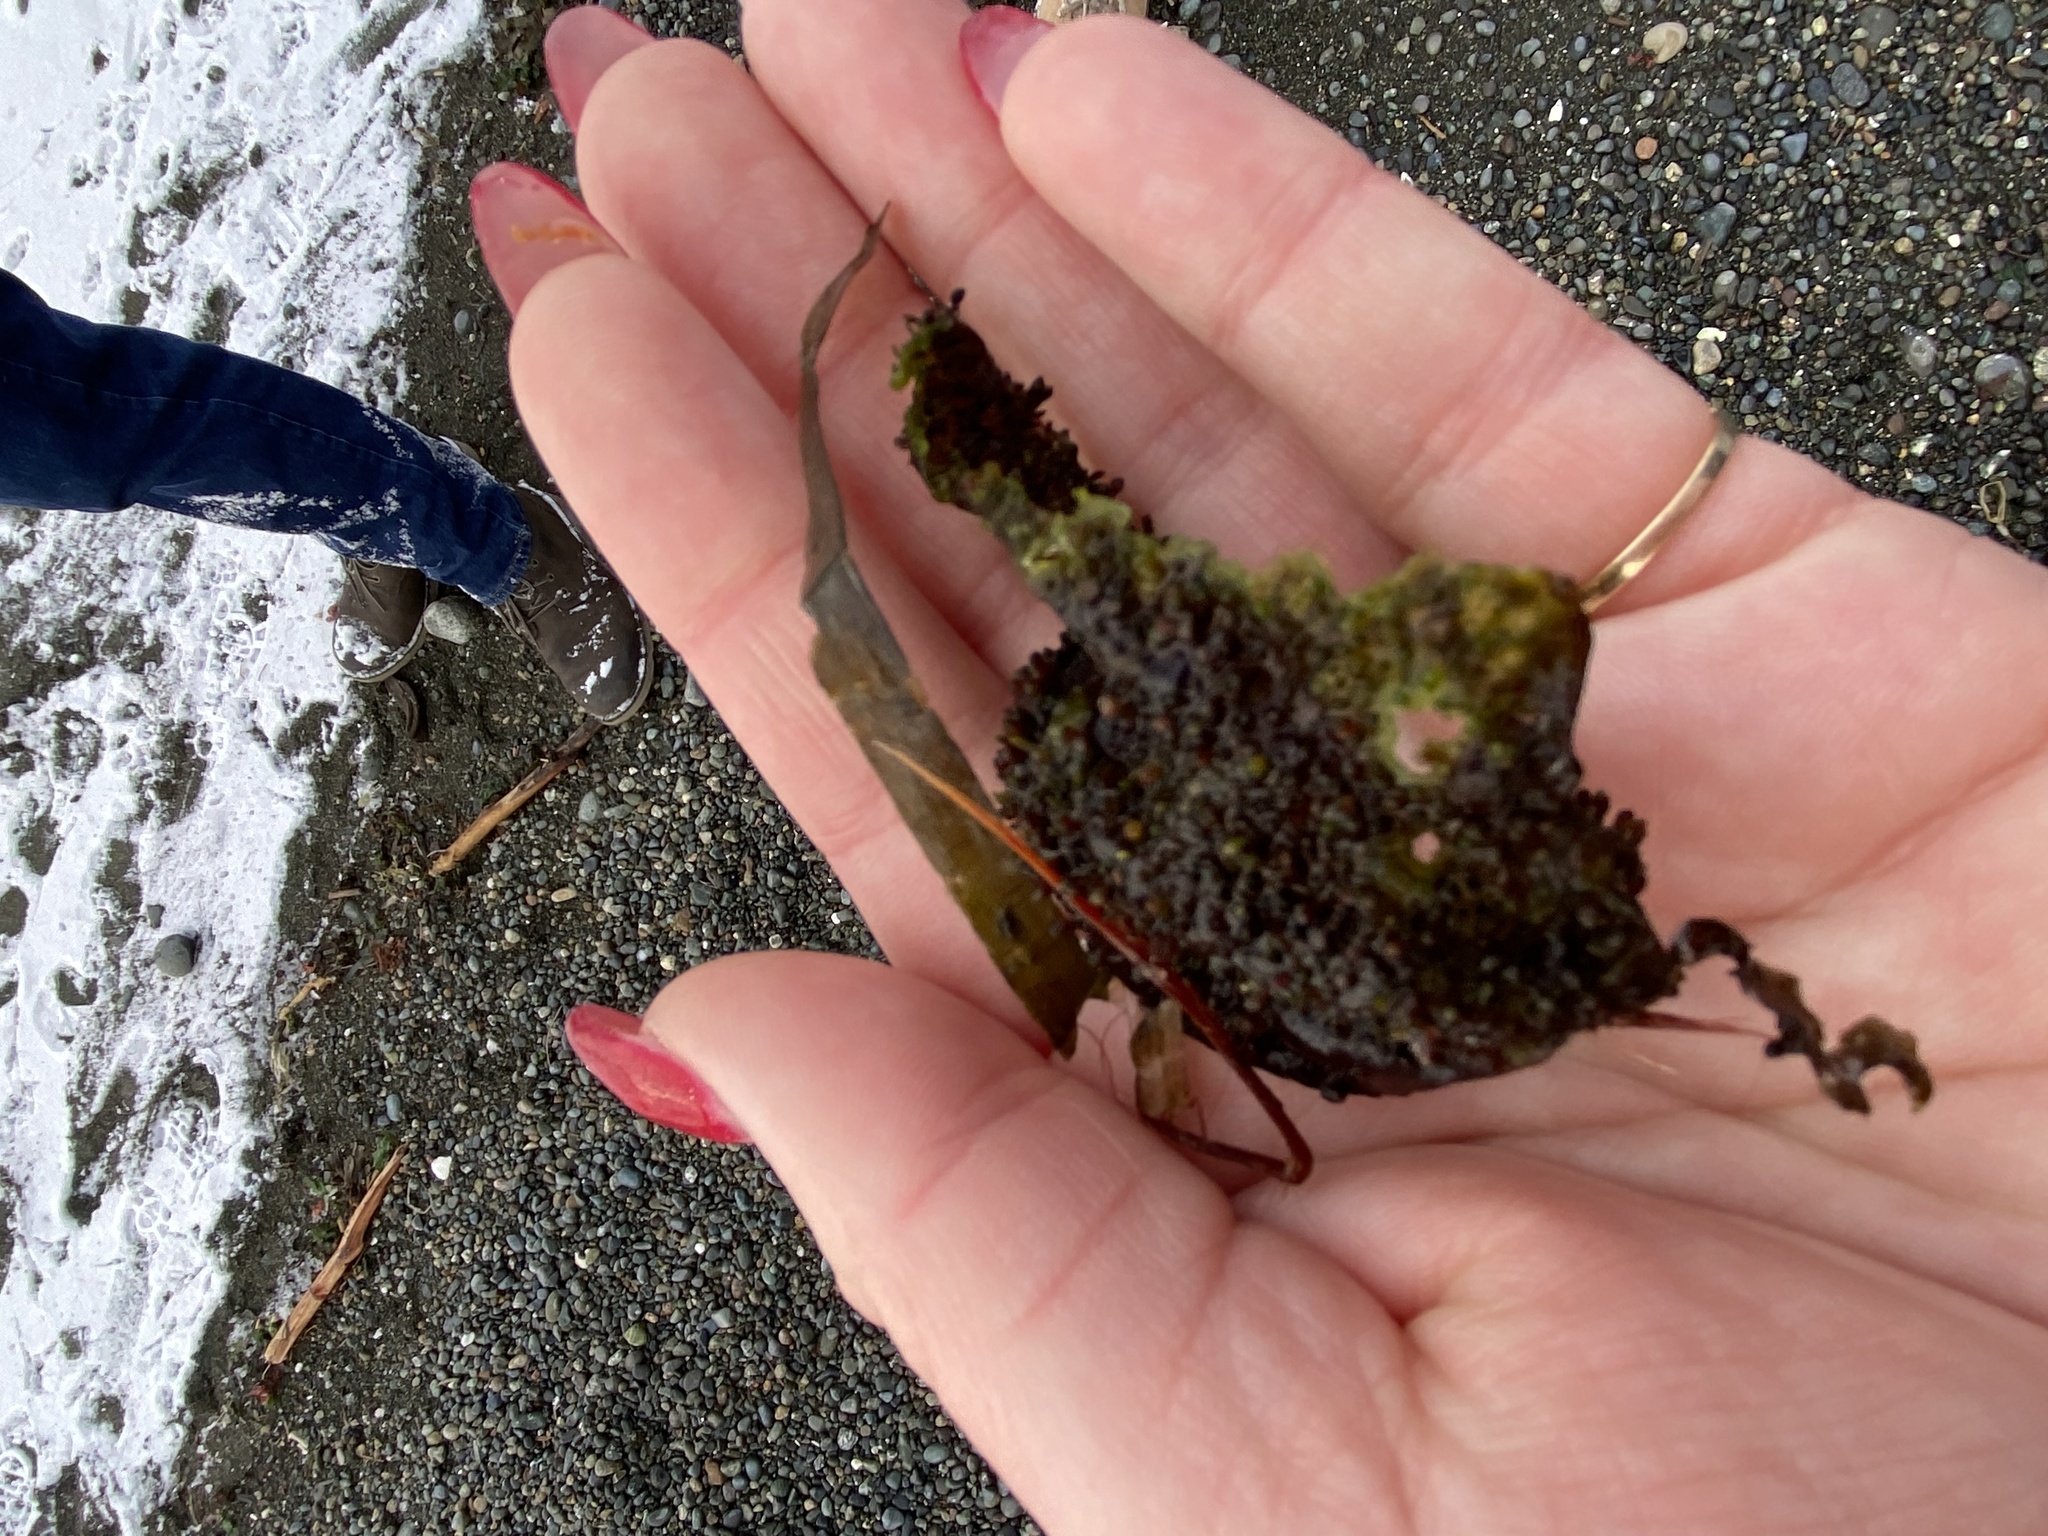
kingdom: Plantae
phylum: Rhodophyta
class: Florideophyceae
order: Gigartinales
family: Gigartinaceae
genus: Chondracanthus
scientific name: Chondracanthus exasperatus
